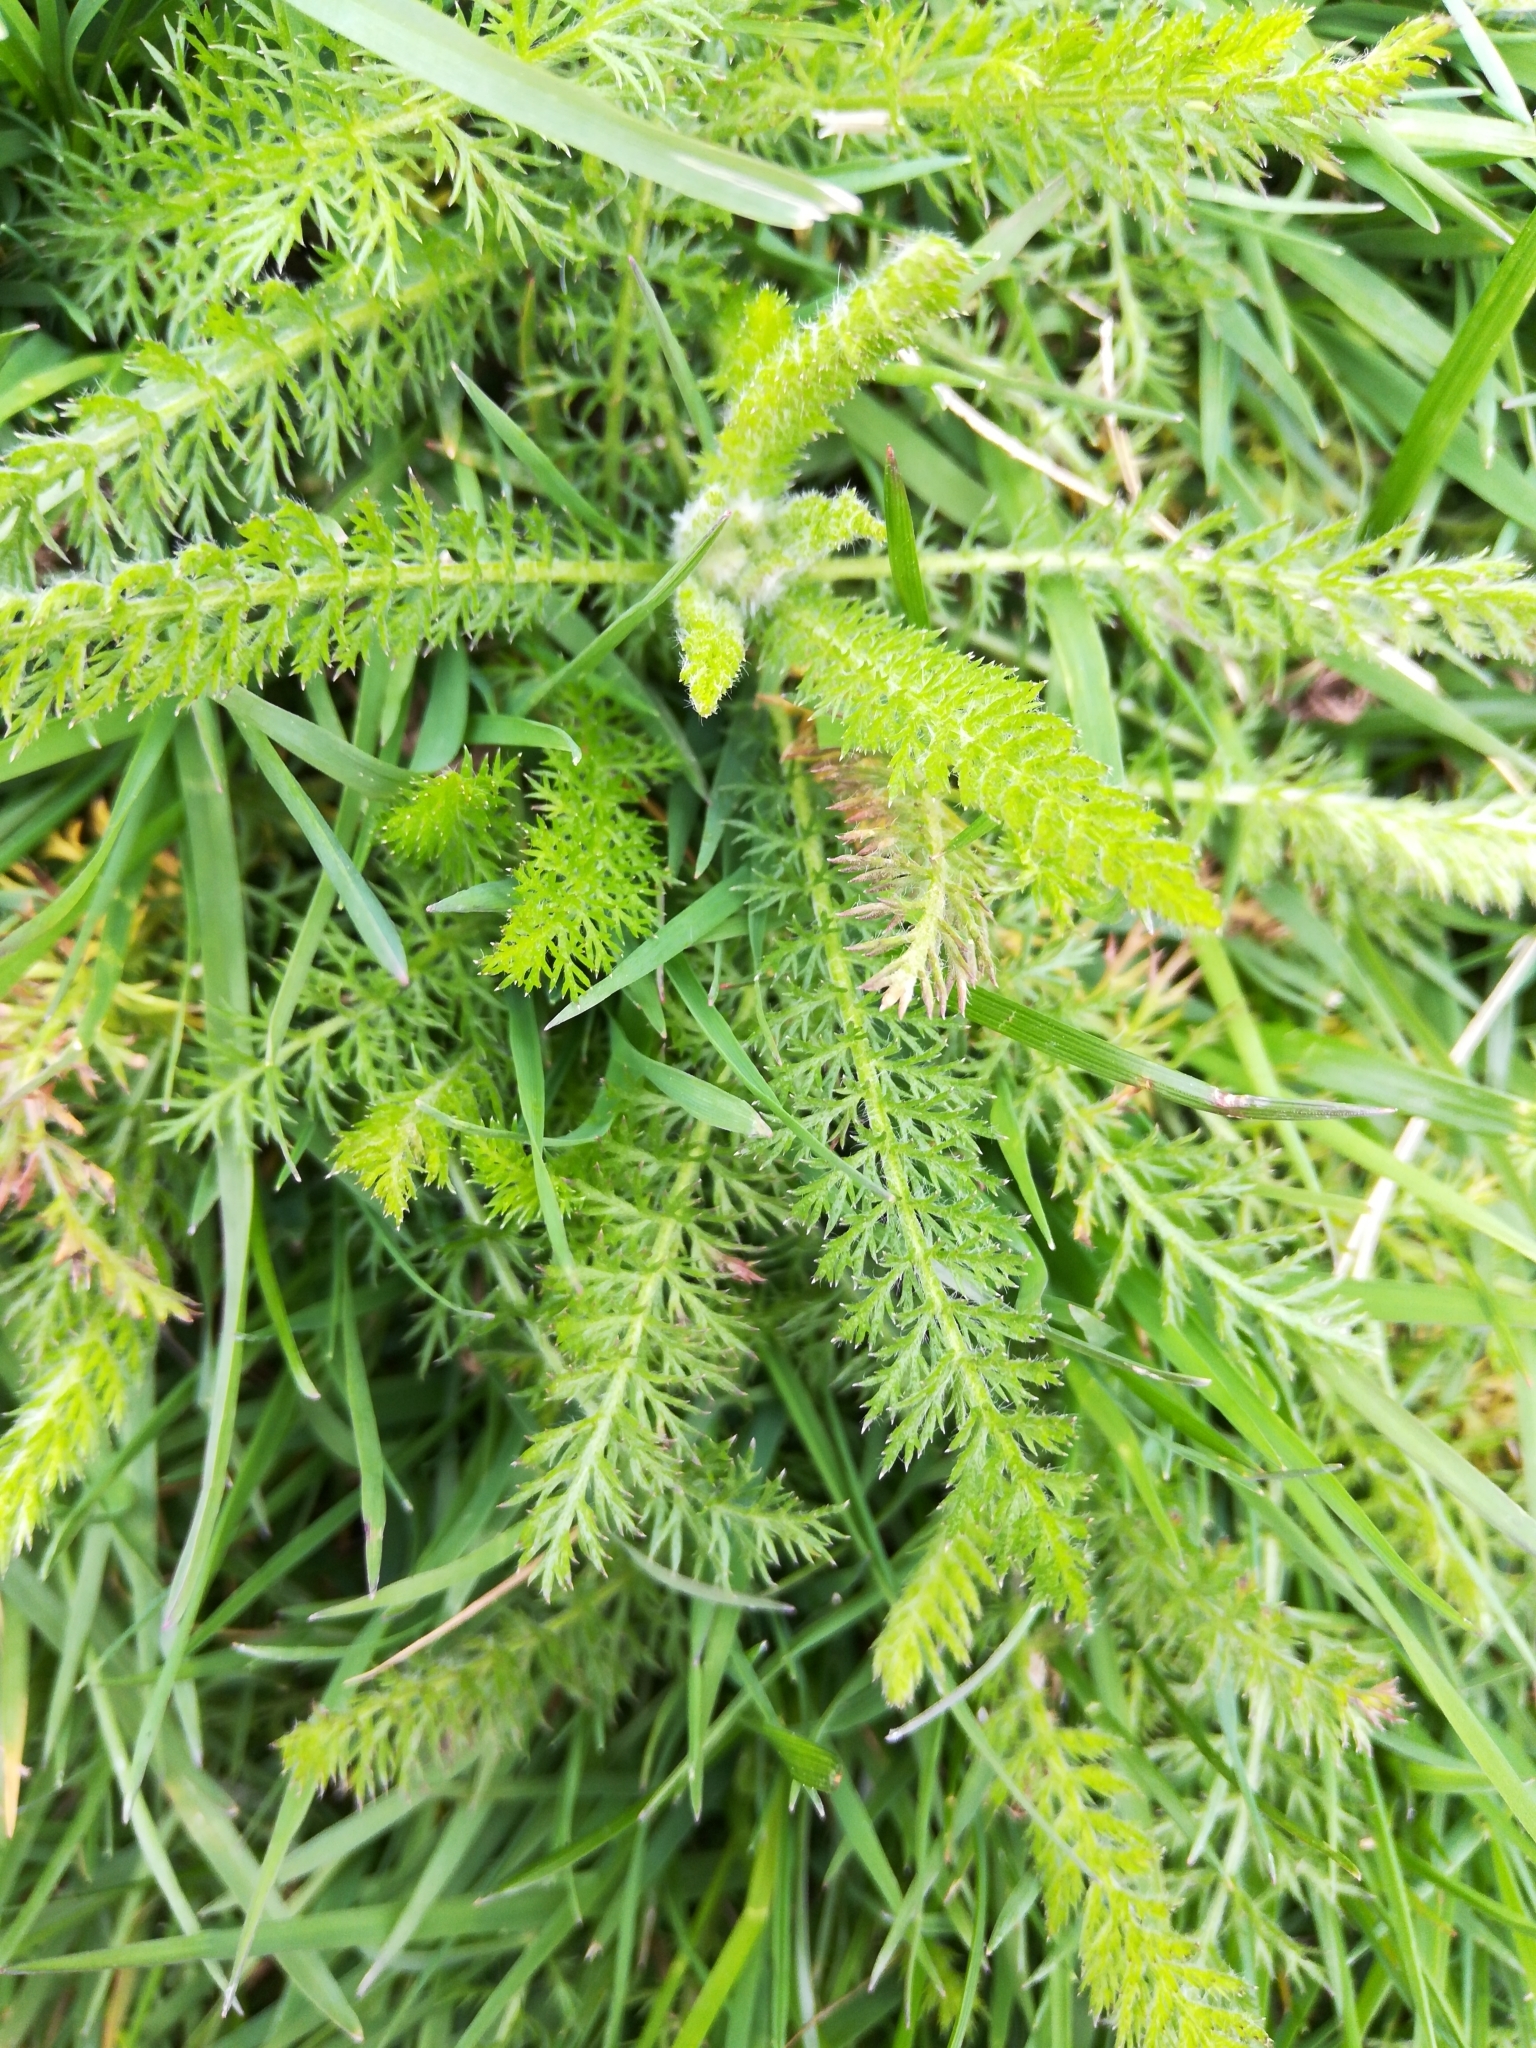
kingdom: Plantae
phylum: Tracheophyta
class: Magnoliopsida
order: Asterales
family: Asteraceae
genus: Achillea
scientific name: Achillea millefolium
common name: Yarrow
